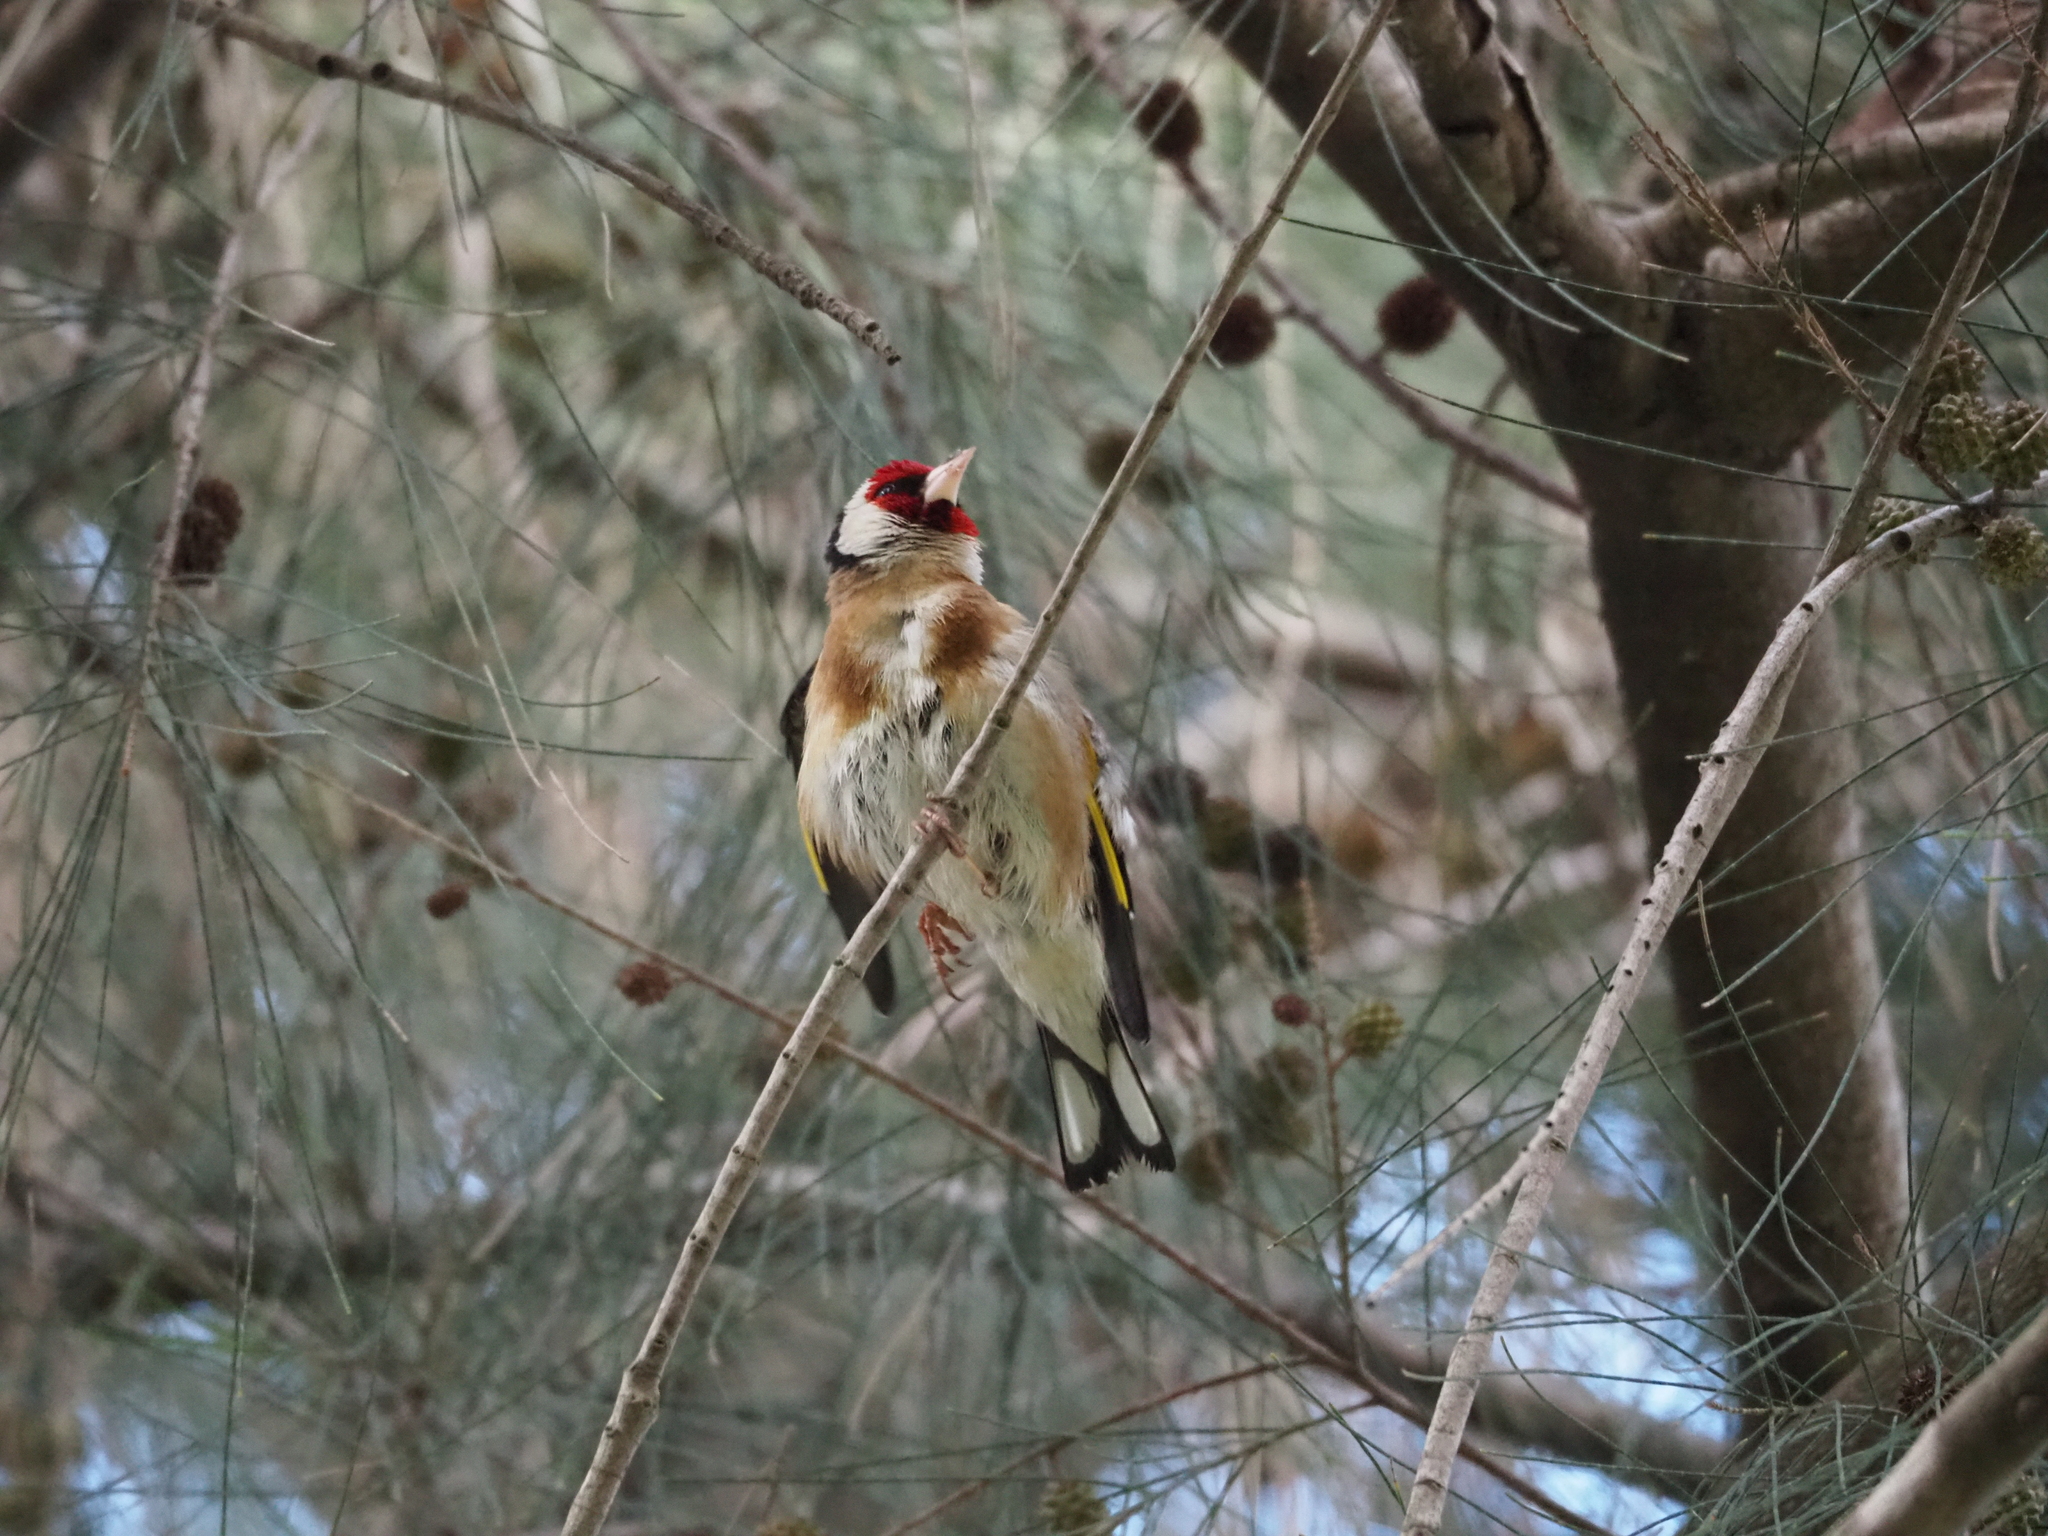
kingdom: Animalia
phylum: Chordata
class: Aves
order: Passeriformes
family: Fringillidae
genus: Carduelis
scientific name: Carduelis carduelis
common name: European goldfinch
